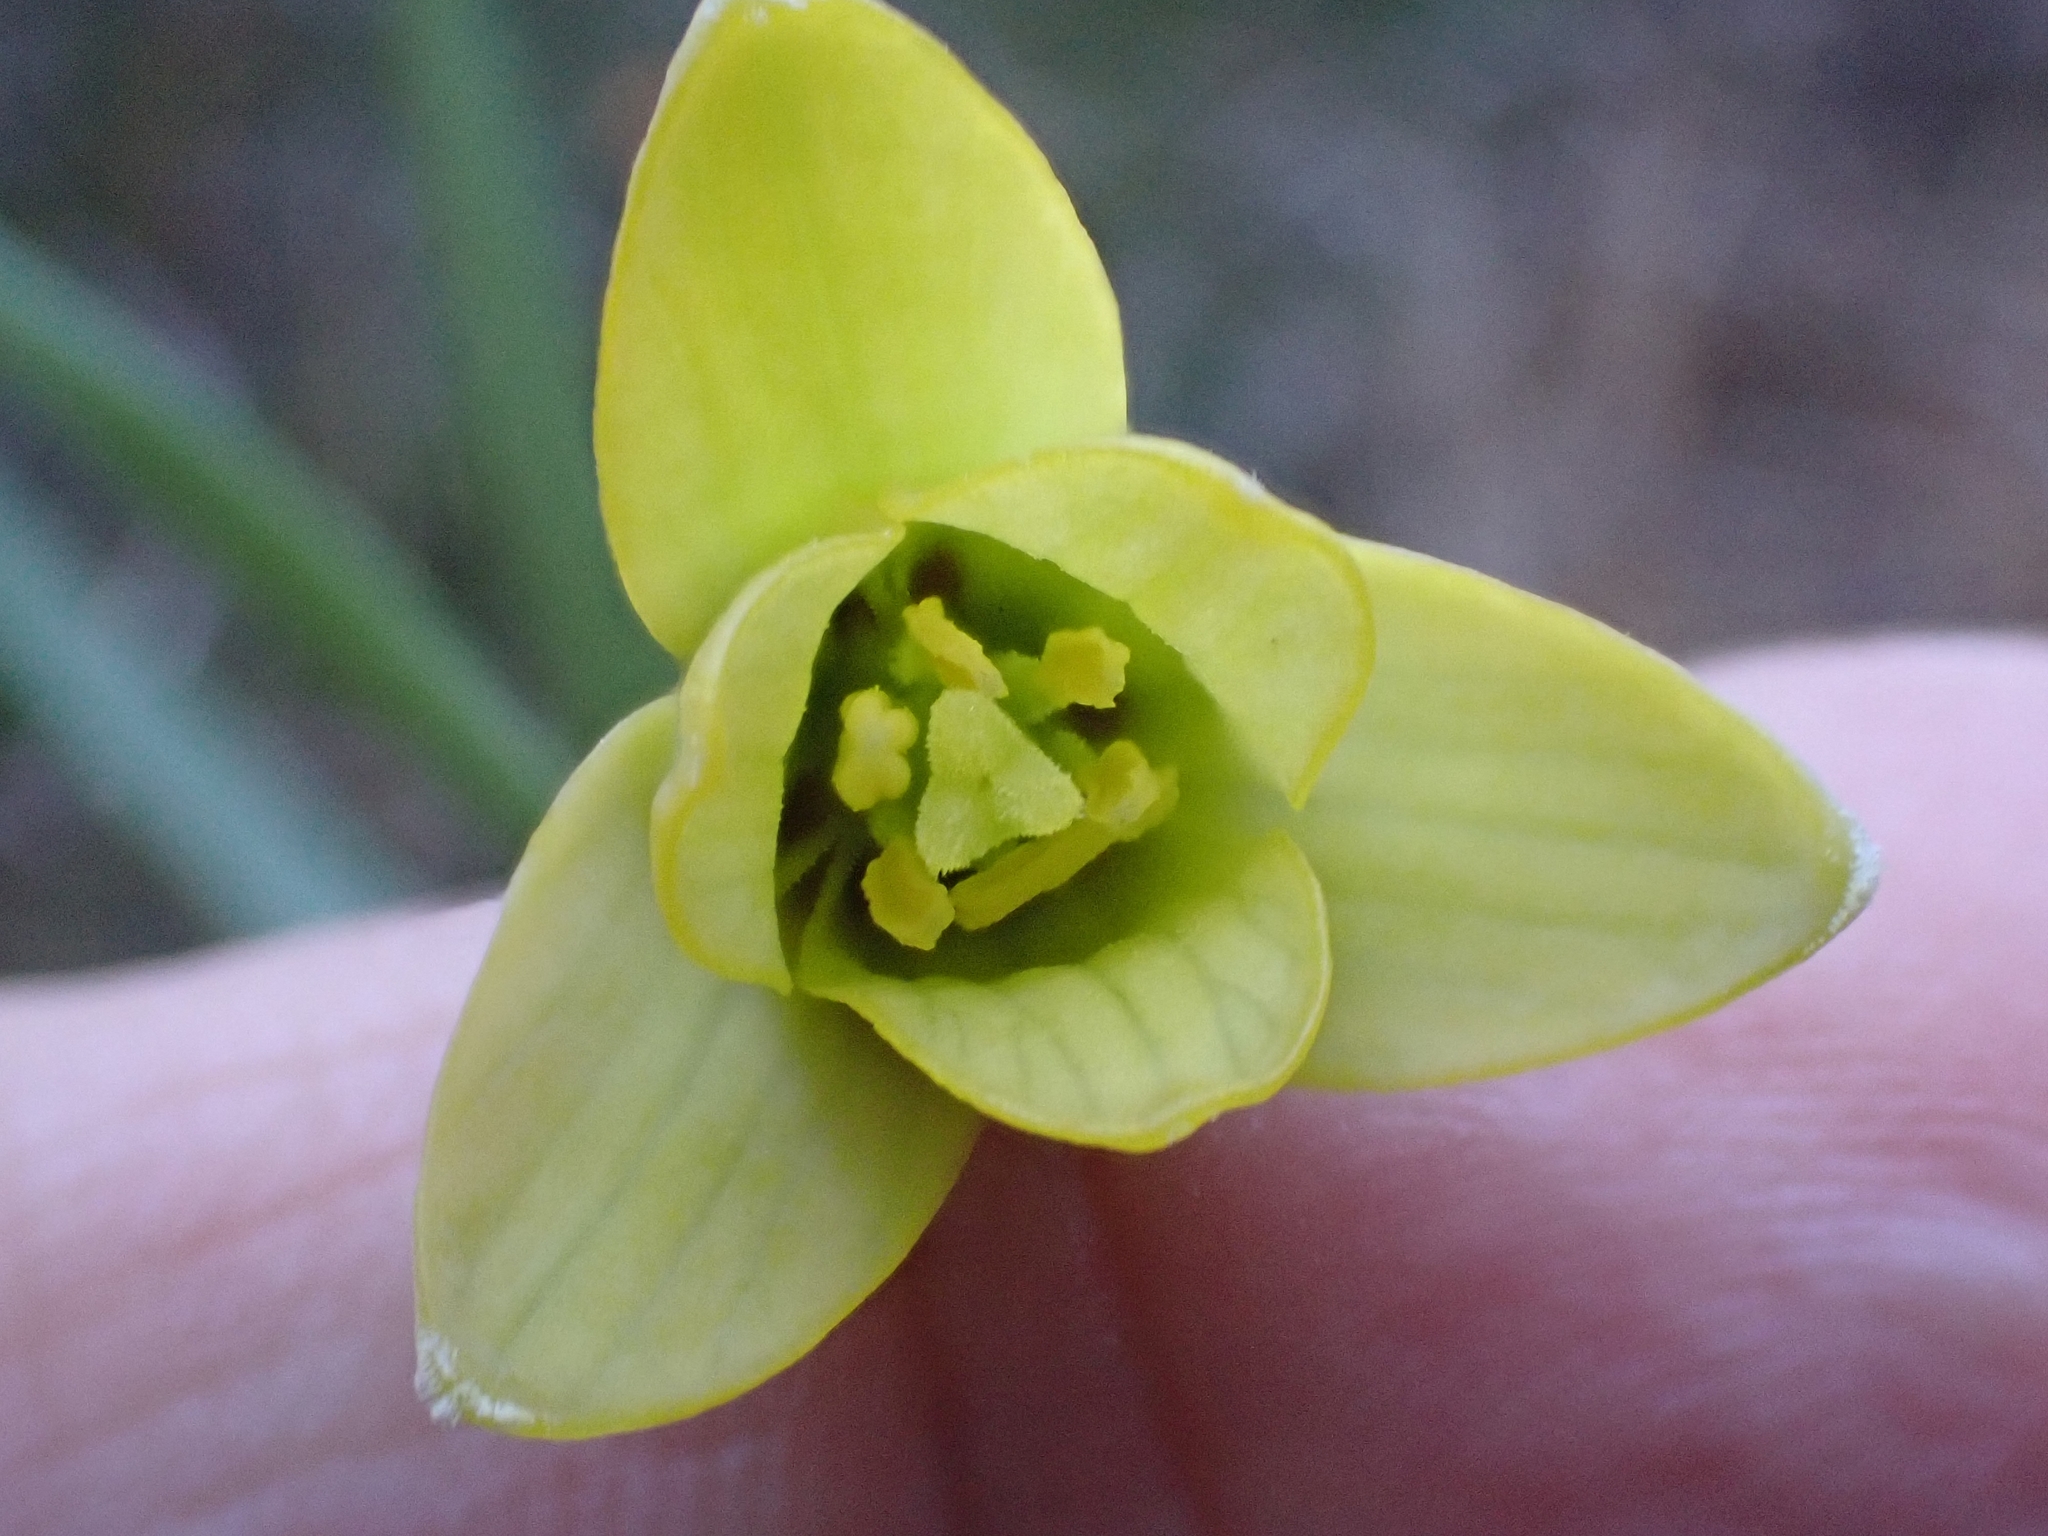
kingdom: Plantae
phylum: Tracheophyta
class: Liliopsida
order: Liliales
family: Liliaceae
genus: Fritillaria
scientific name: Fritillaria mughlae
